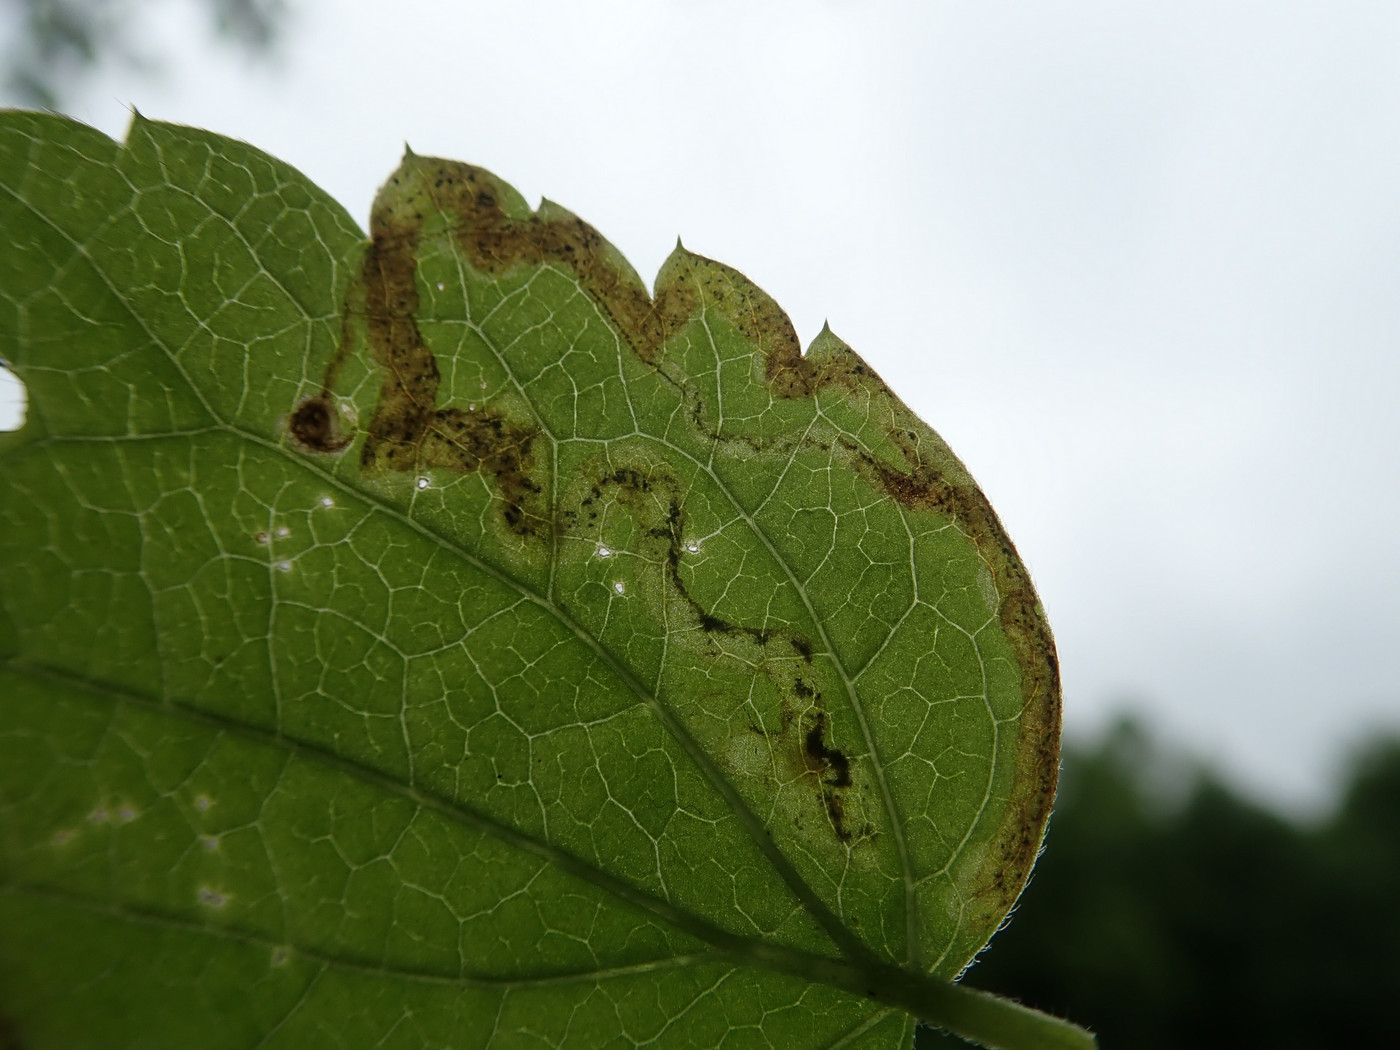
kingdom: Animalia
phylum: Arthropoda
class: Insecta
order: Diptera
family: Agromyzidae
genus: Phytomyza
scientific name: Phytomyza loewii
